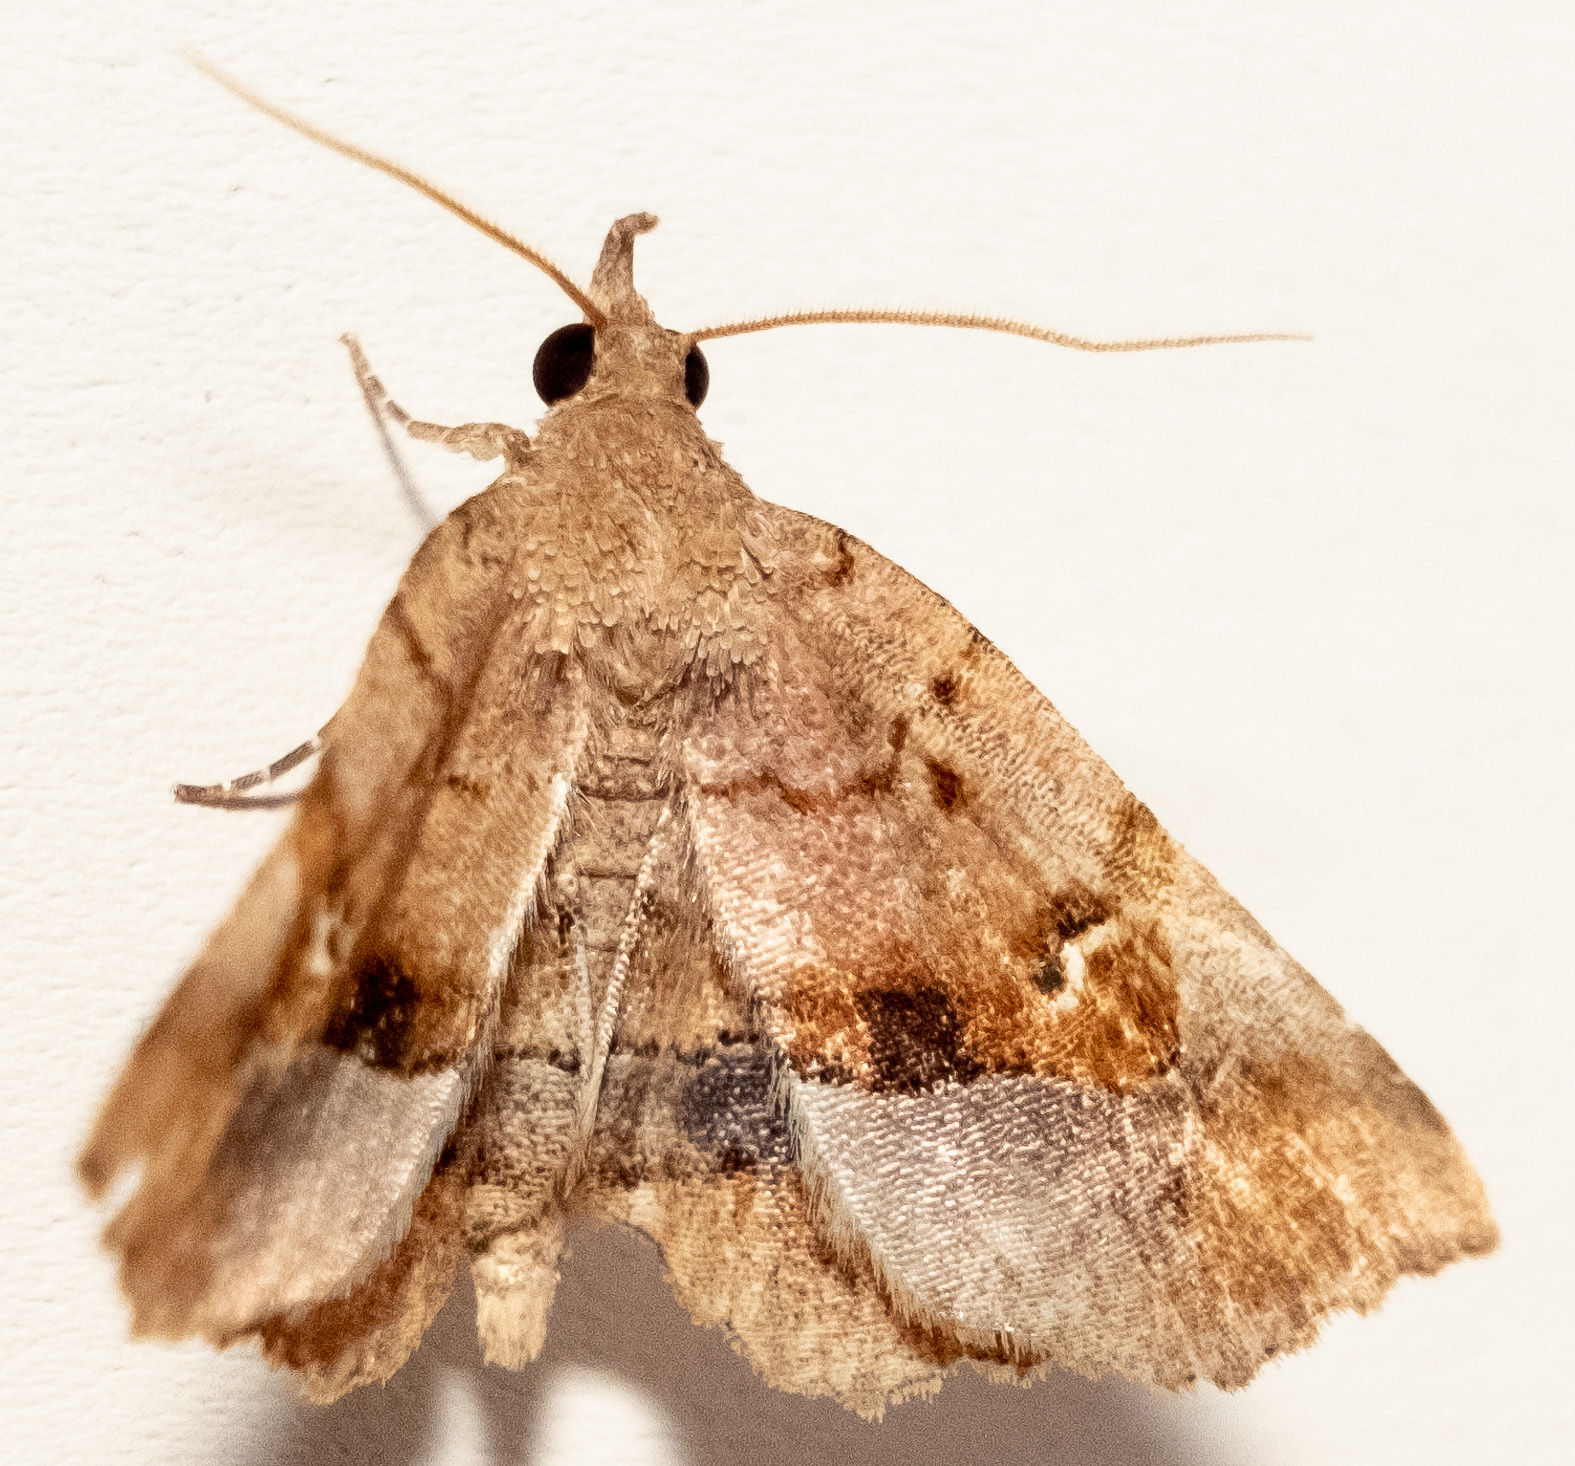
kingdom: Animalia
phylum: Arthropoda
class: Insecta
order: Lepidoptera
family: Erebidae
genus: Pangrapta
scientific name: Pangrapta decoralis
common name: Decorated owlet
